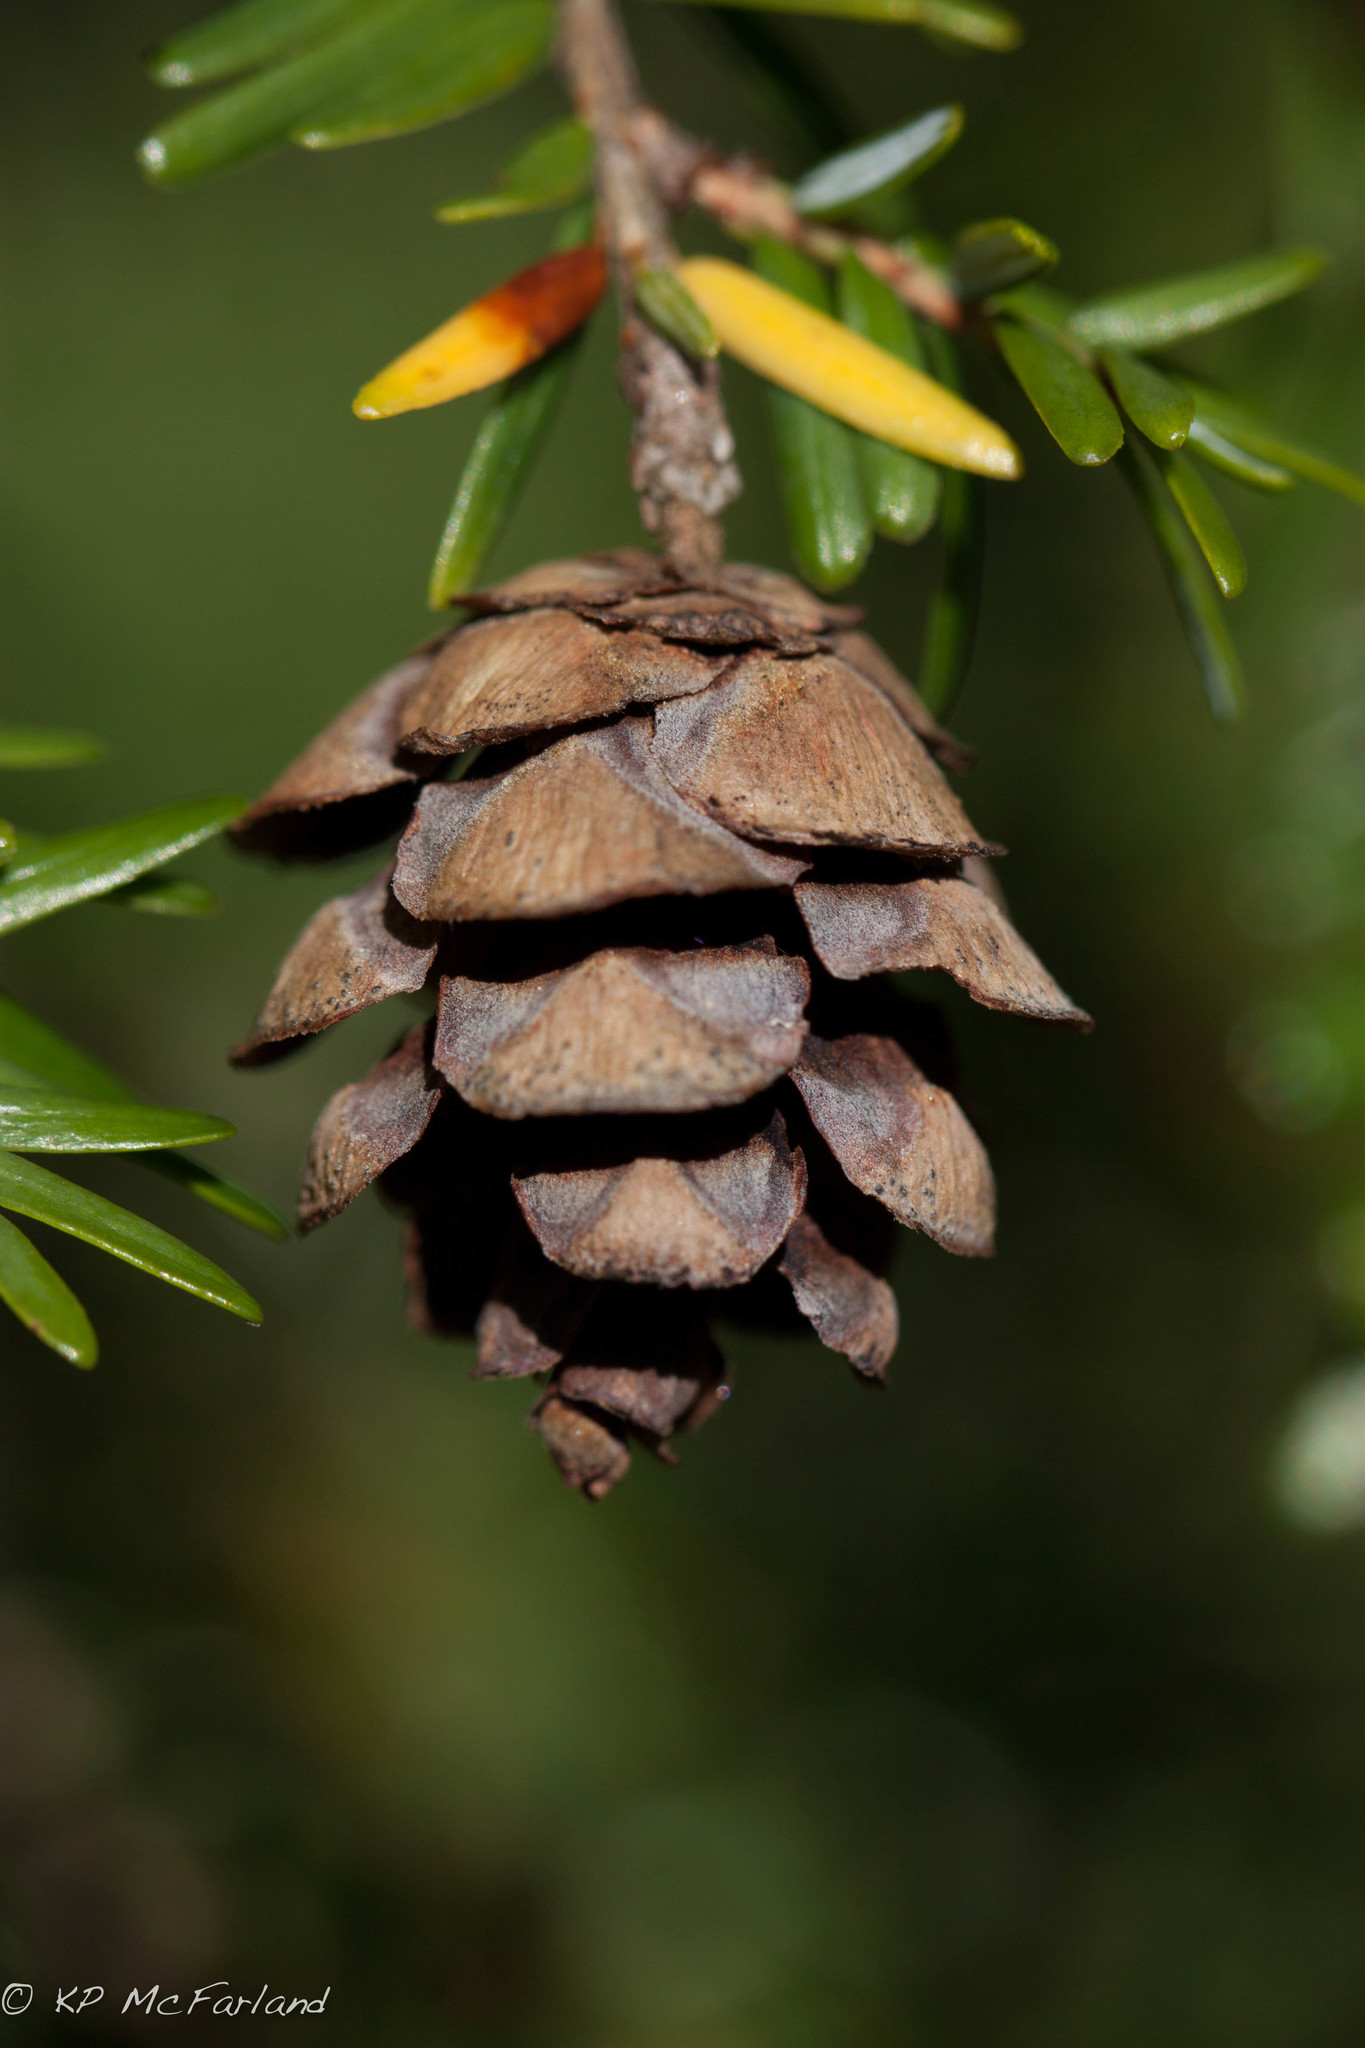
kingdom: Plantae
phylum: Tracheophyta
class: Pinopsida
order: Pinales
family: Pinaceae
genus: Tsuga
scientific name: Tsuga canadensis
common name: Eastern hemlock
